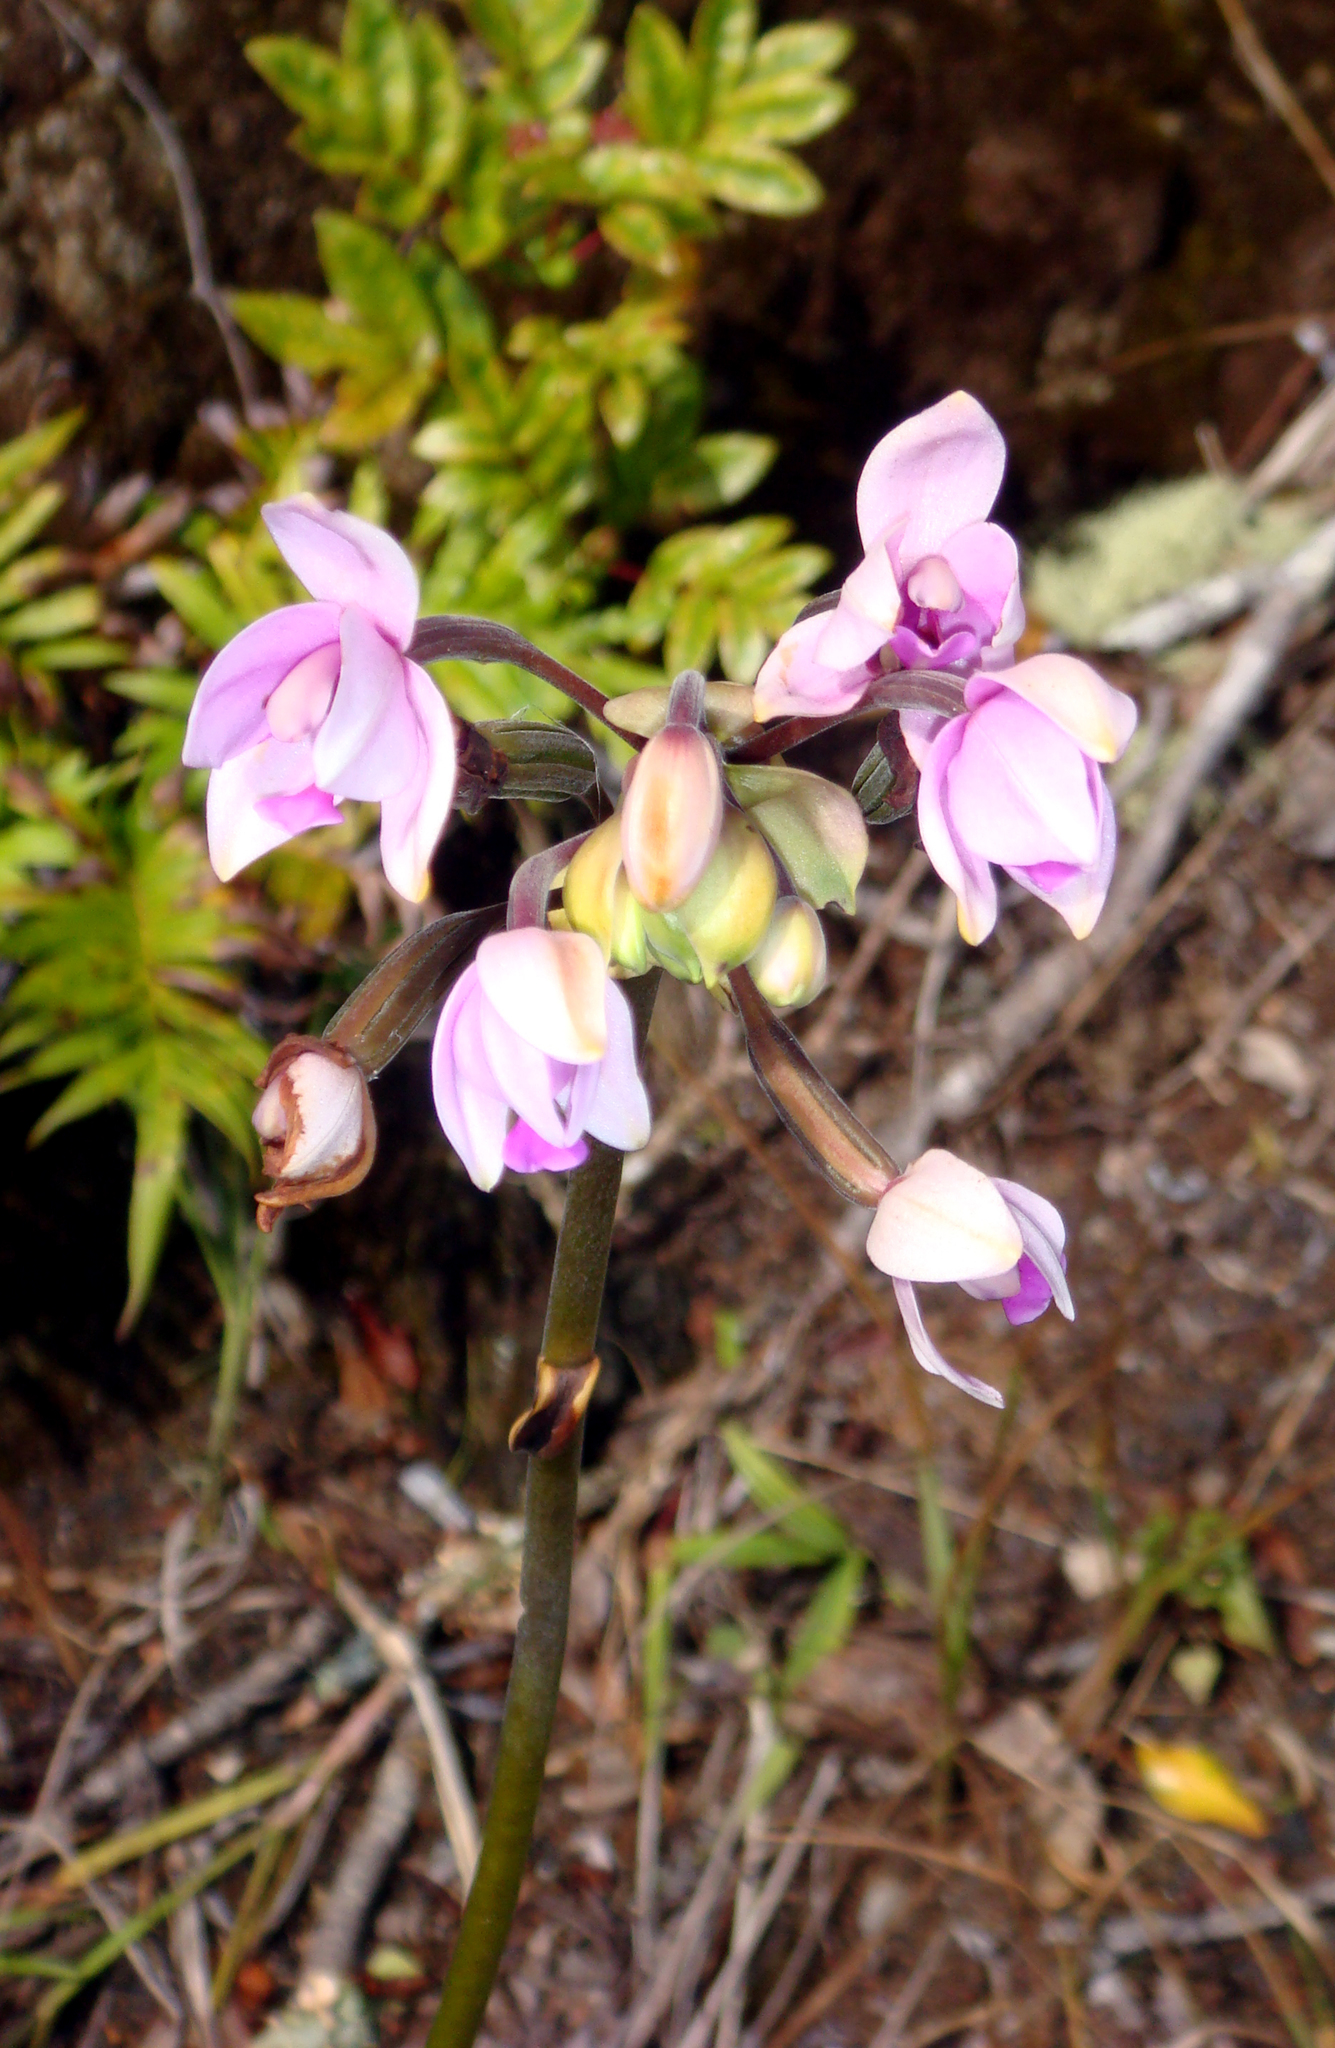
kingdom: Plantae
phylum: Tracheophyta
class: Liliopsida
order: Asparagales
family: Orchidaceae
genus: Spathoglottis
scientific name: Spathoglottis plicata
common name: Philippine ground orchid
